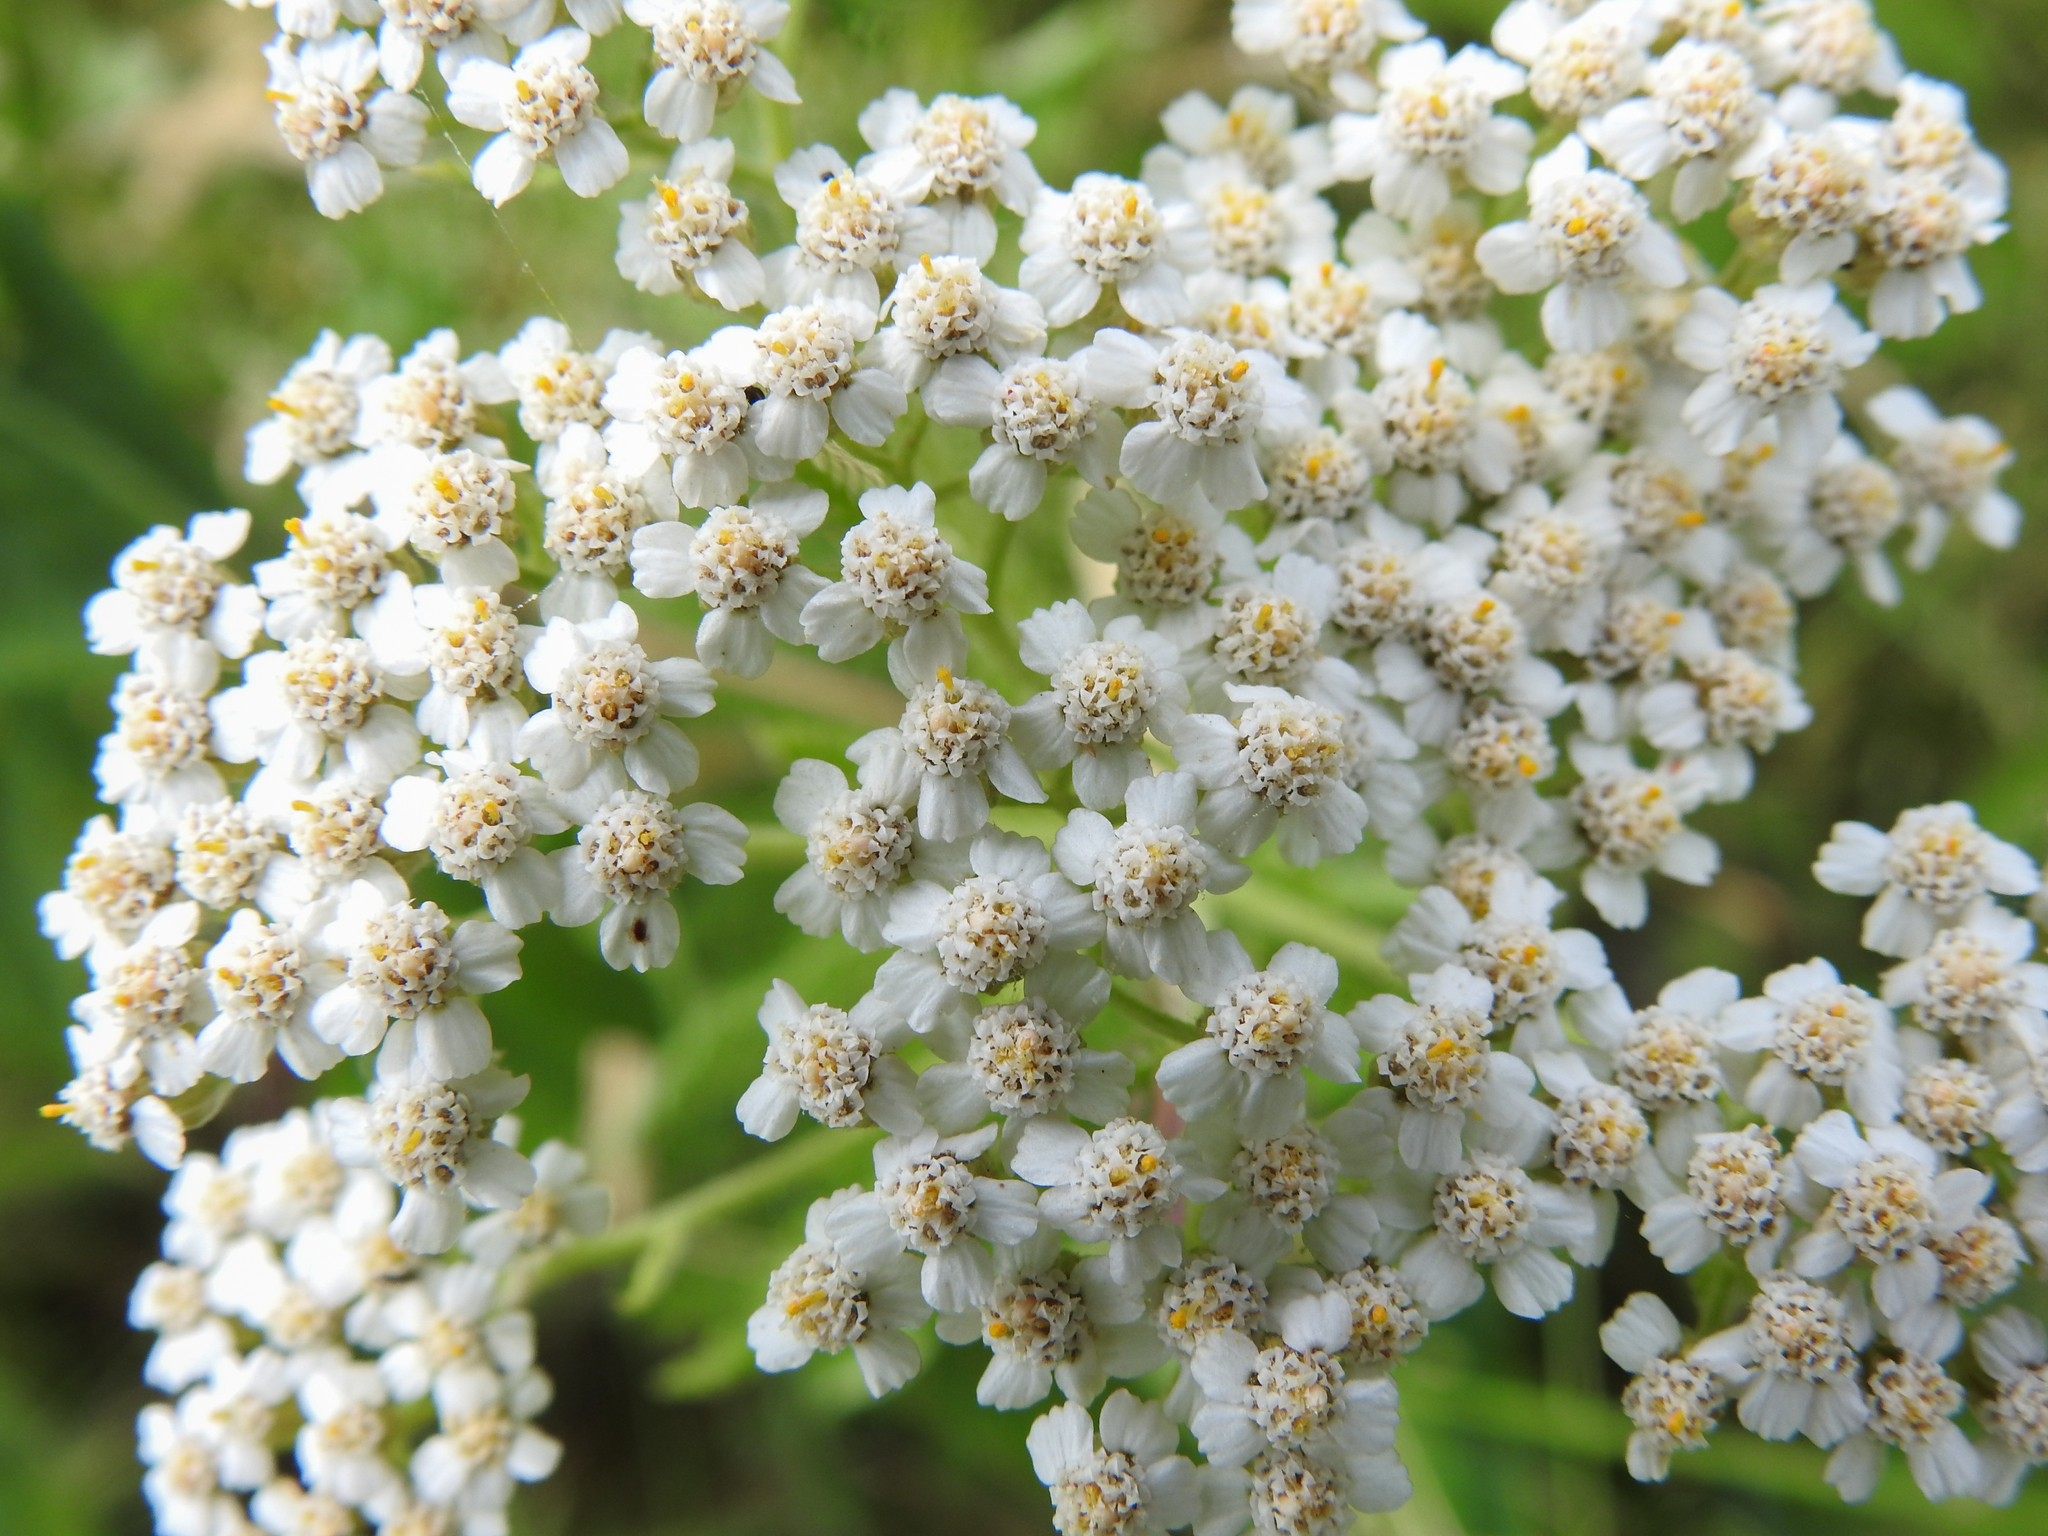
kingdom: Plantae
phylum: Tracheophyta
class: Magnoliopsida
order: Asterales
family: Asteraceae
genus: Achillea
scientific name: Achillea millefolium
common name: Yarrow
